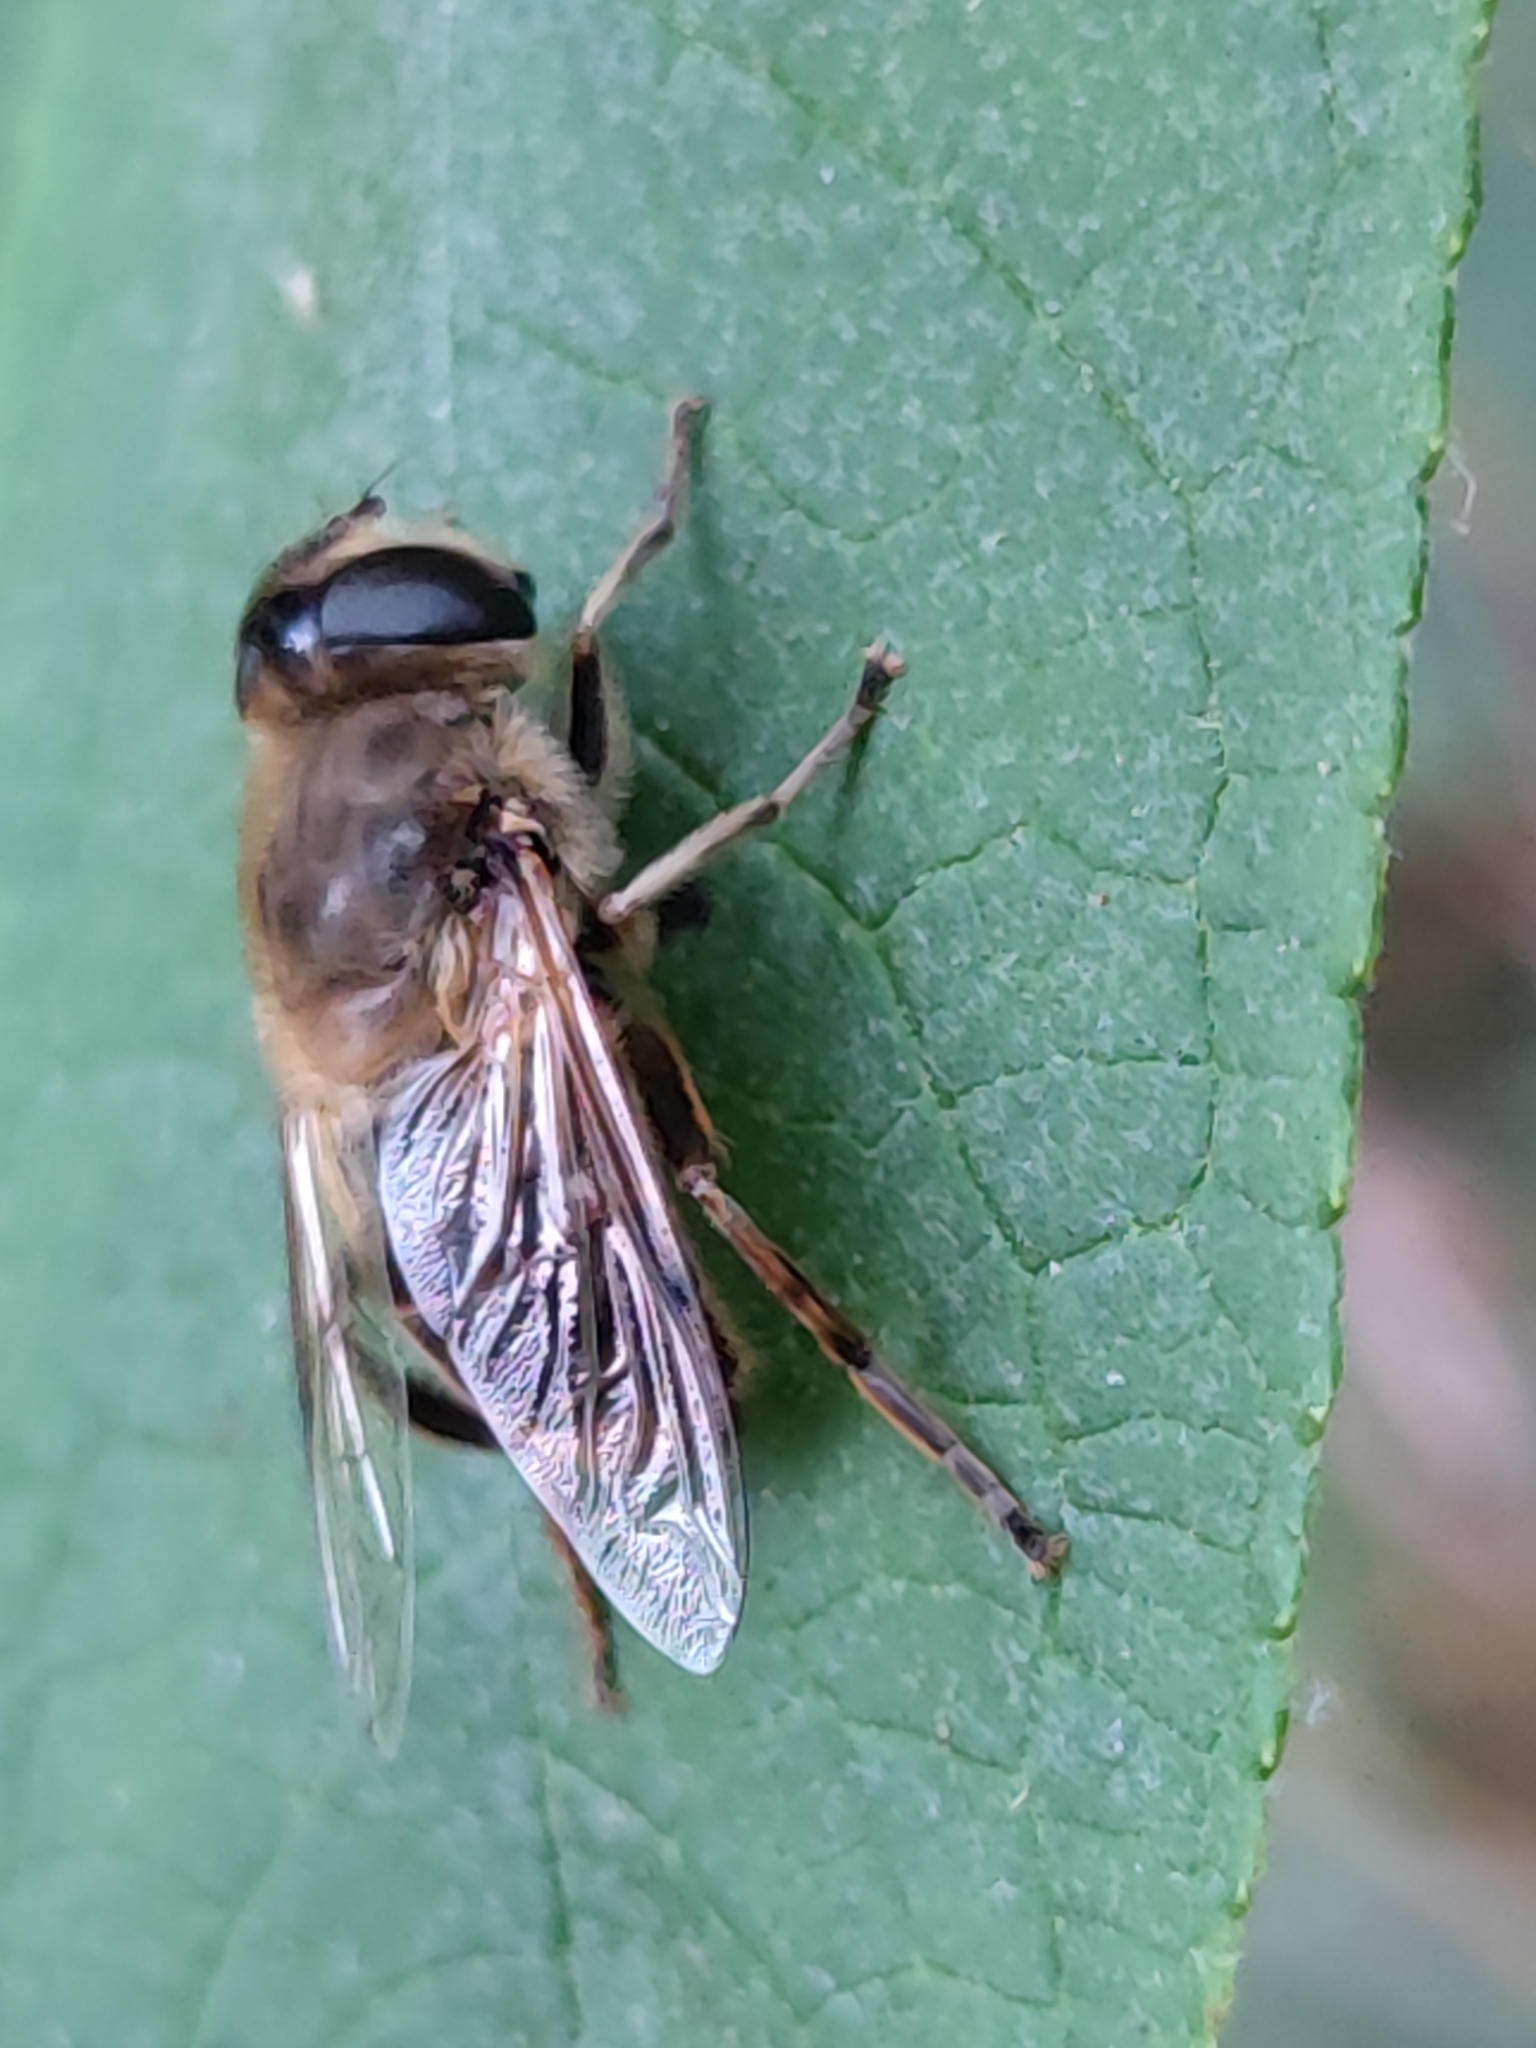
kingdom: Animalia
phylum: Arthropoda
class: Insecta
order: Diptera
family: Syrphidae
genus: Eristalis
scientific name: Eristalis tenax
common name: Drone fly
